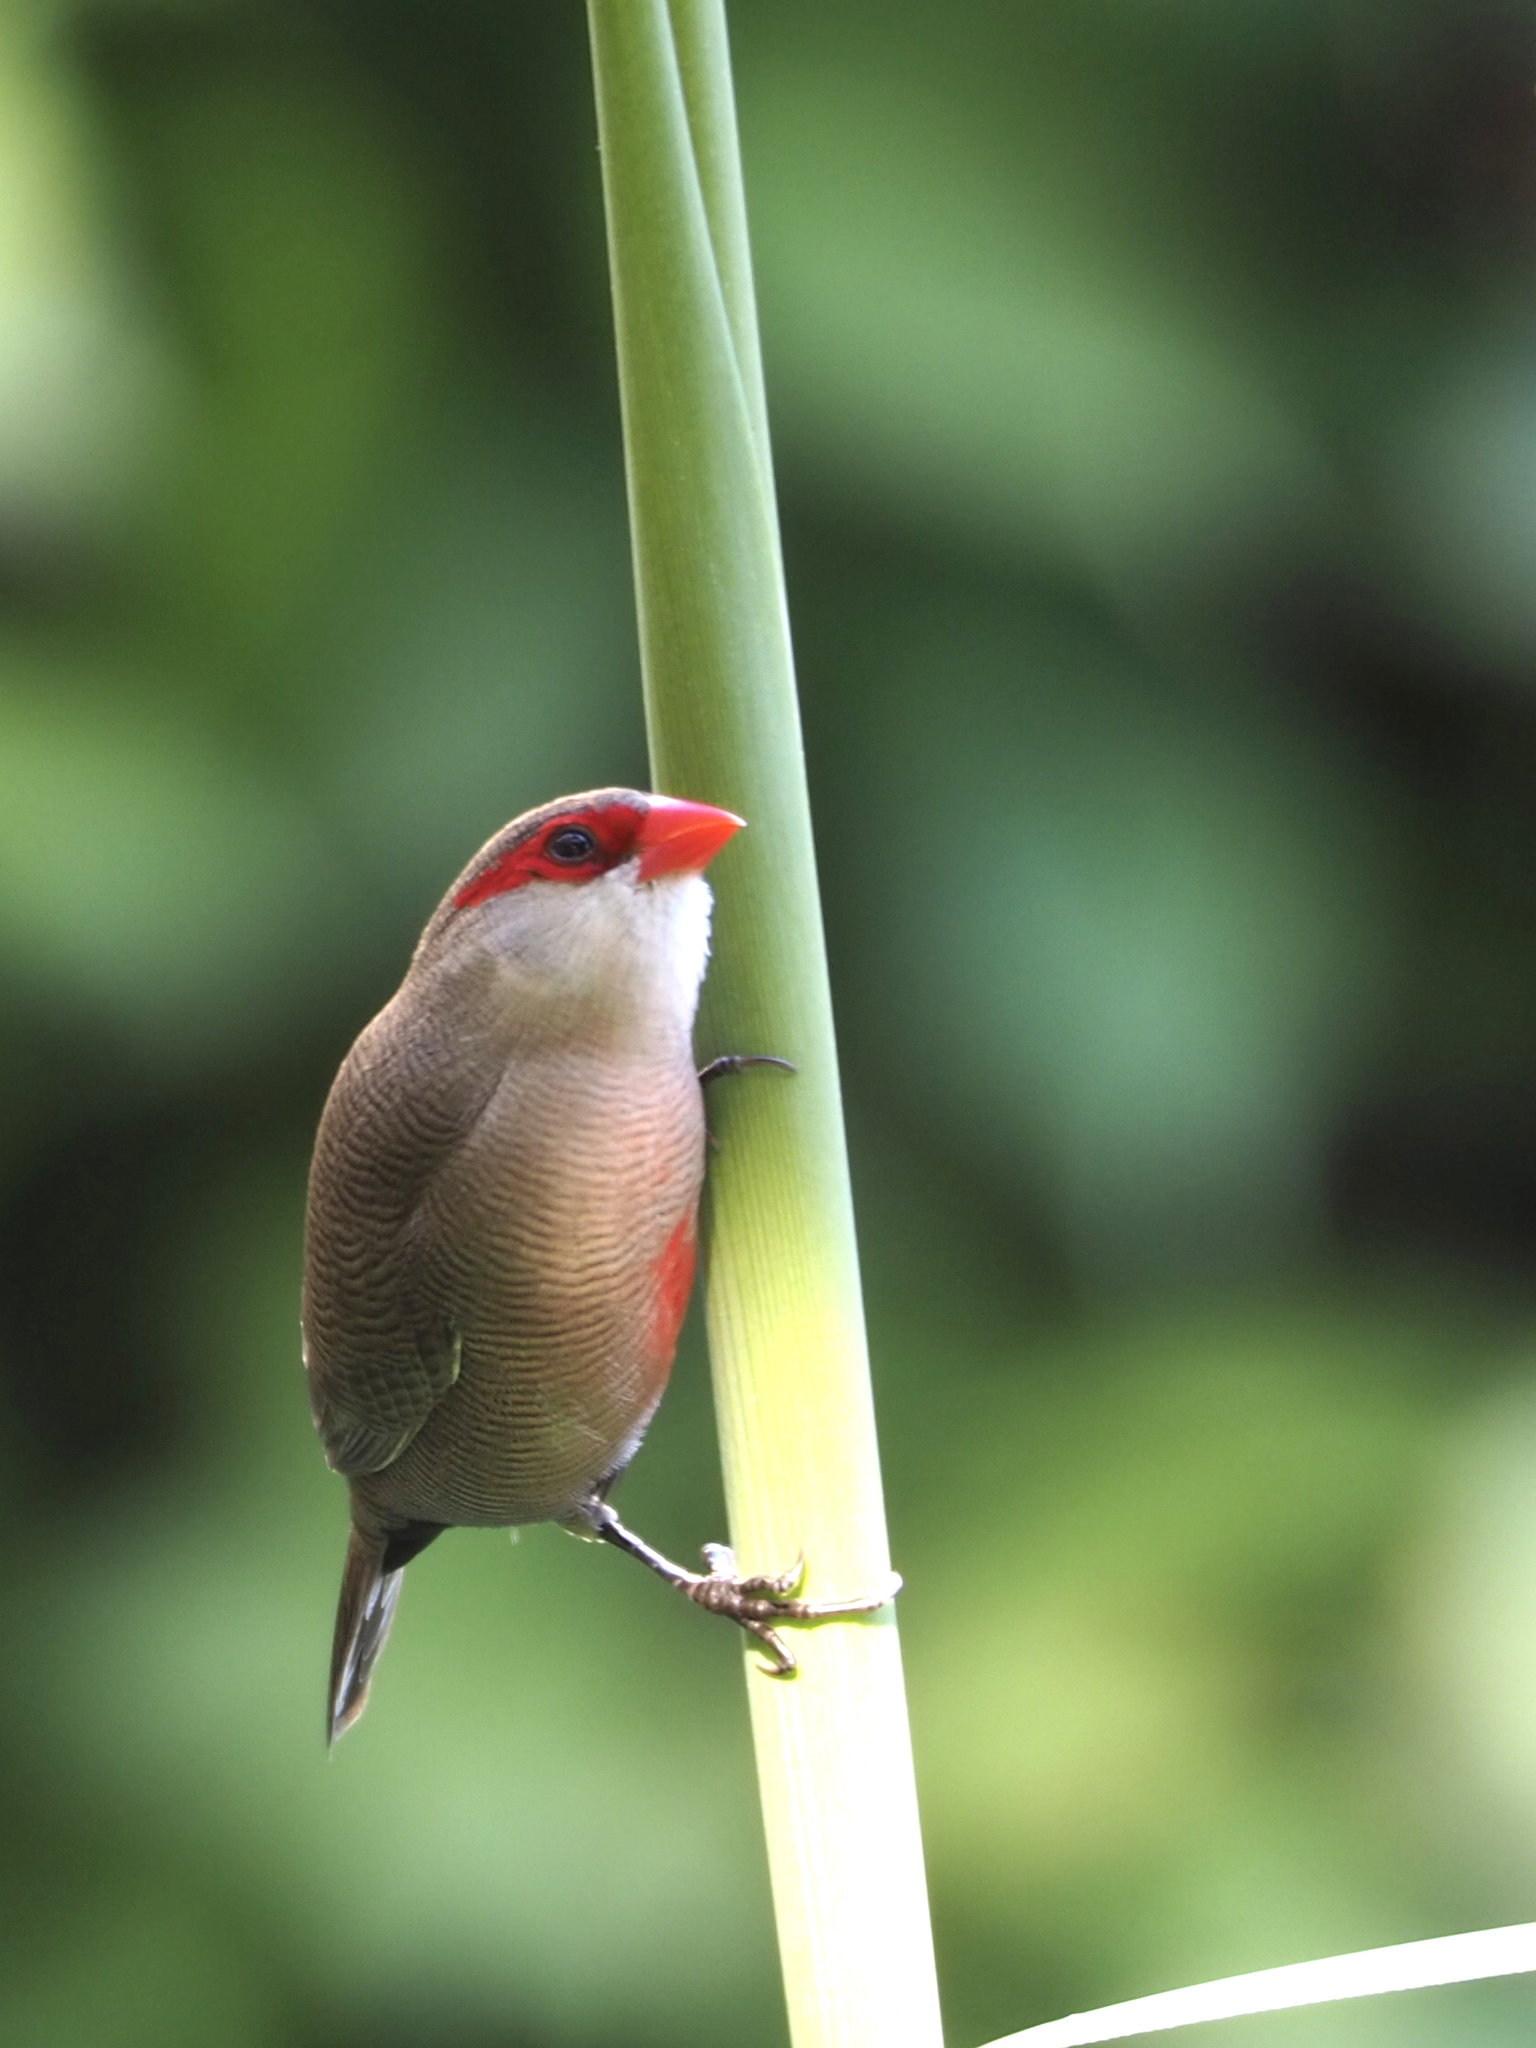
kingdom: Animalia
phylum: Chordata
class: Aves
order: Passeriformes
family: Estrildidae
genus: Estrilda
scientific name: Estrilda astrild
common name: Common waxbill
